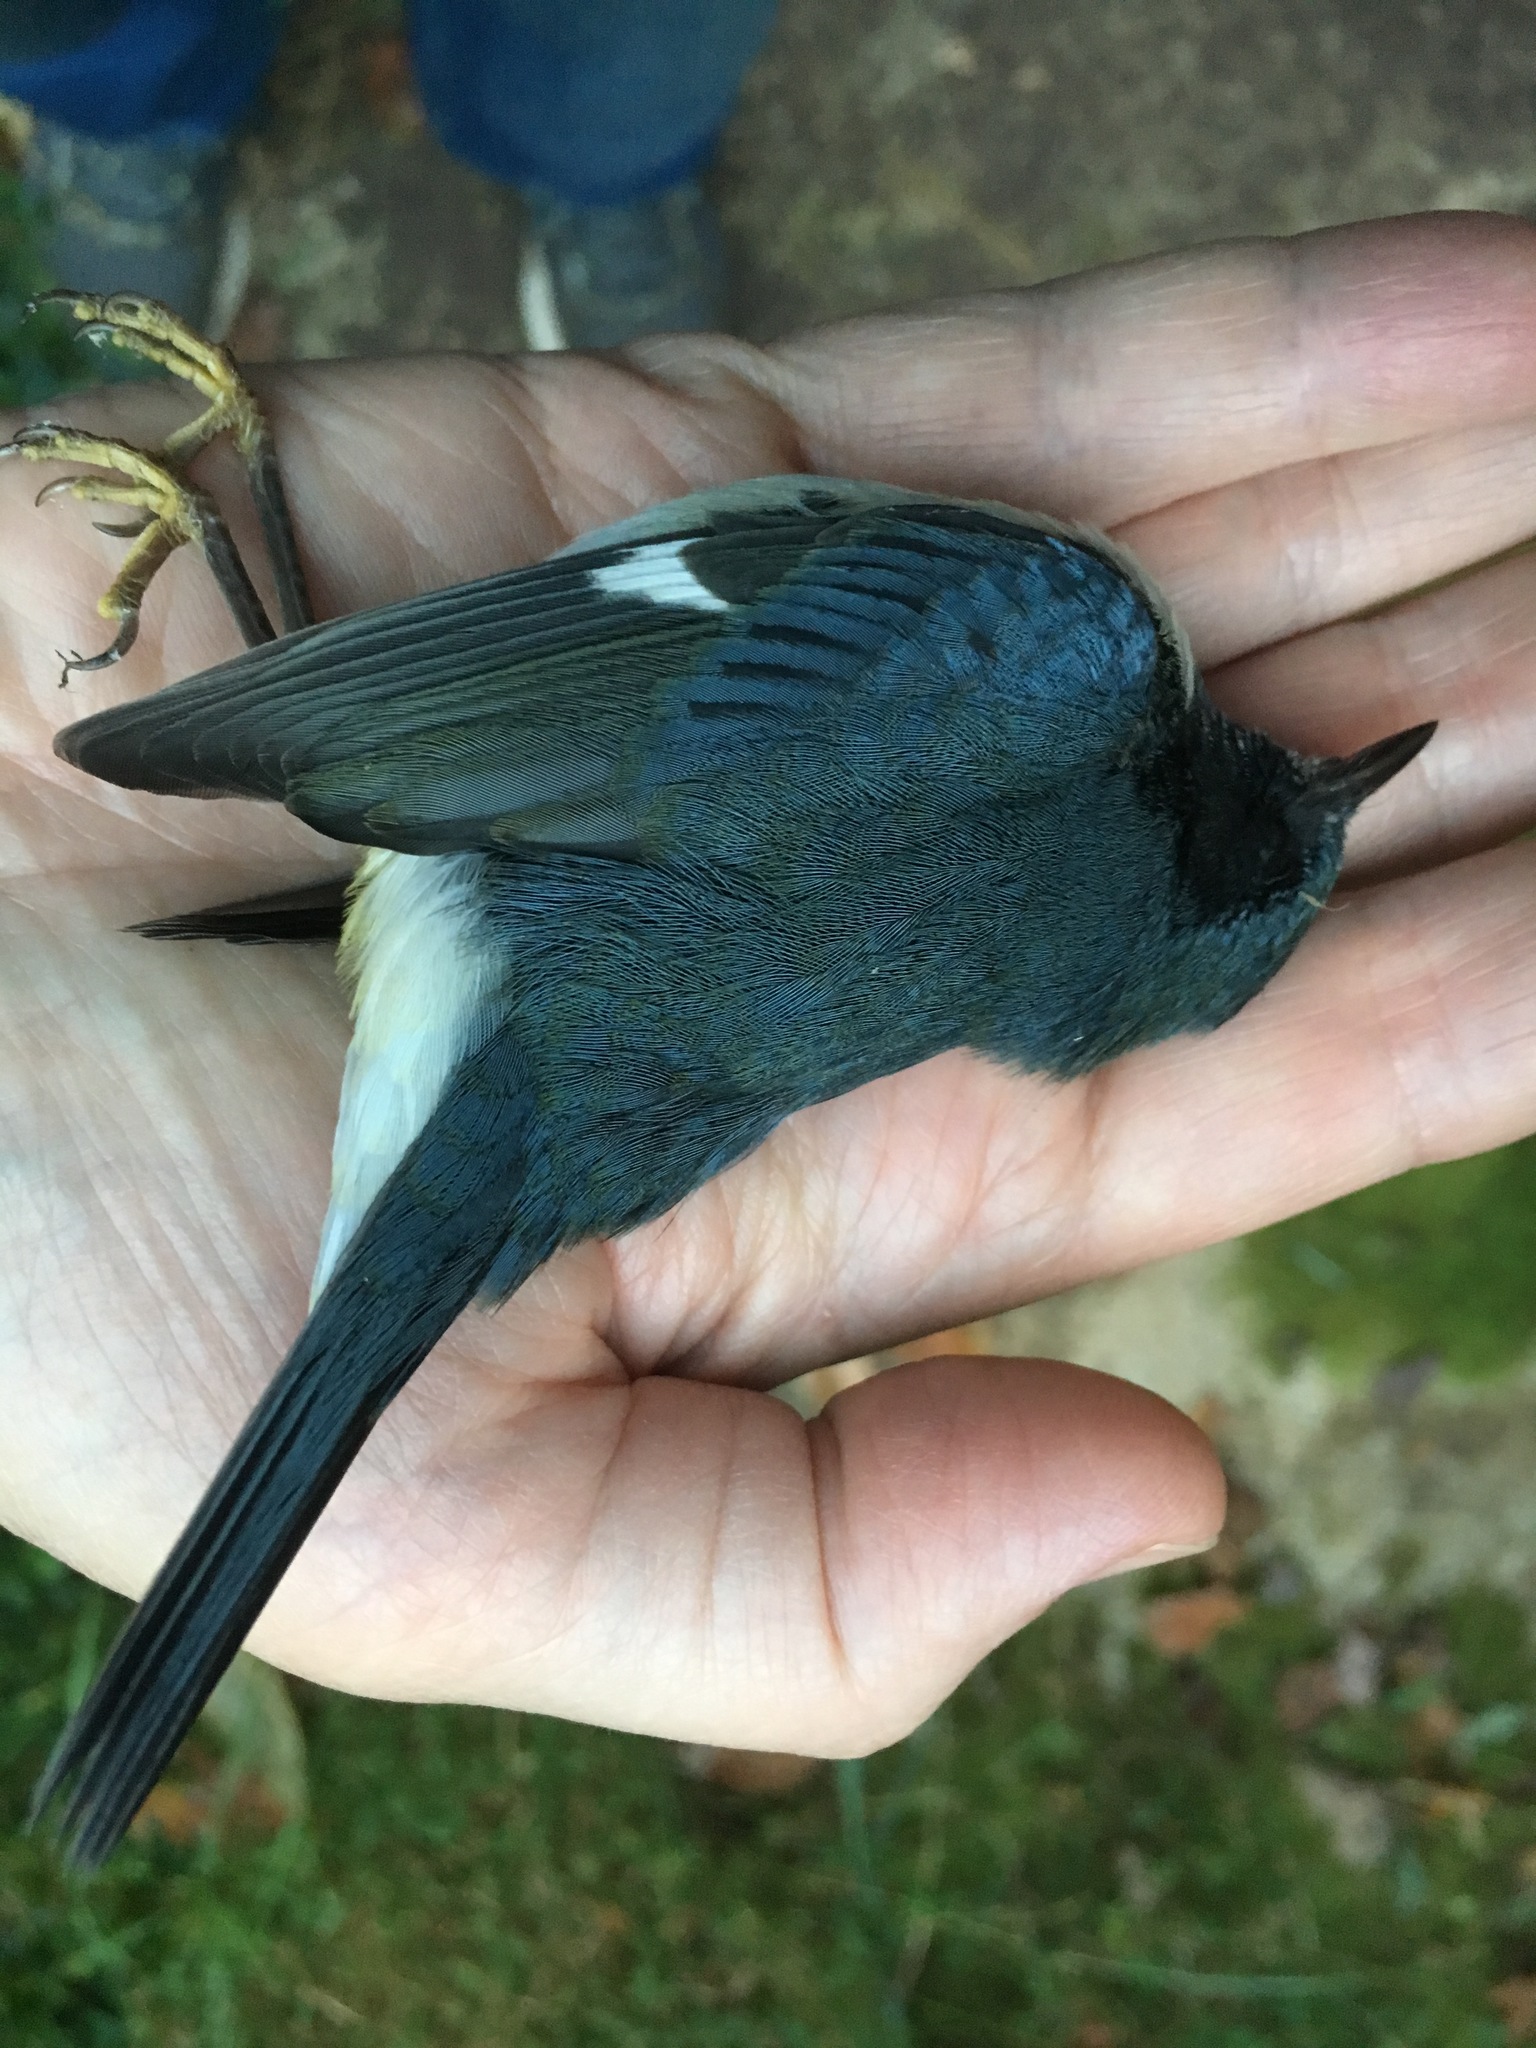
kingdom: Animalia
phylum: Chordata
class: Aves
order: Passeriformes
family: Parulidae
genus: Setophaga
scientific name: Setophaga caerulescens
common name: Black-throated blue warbler
